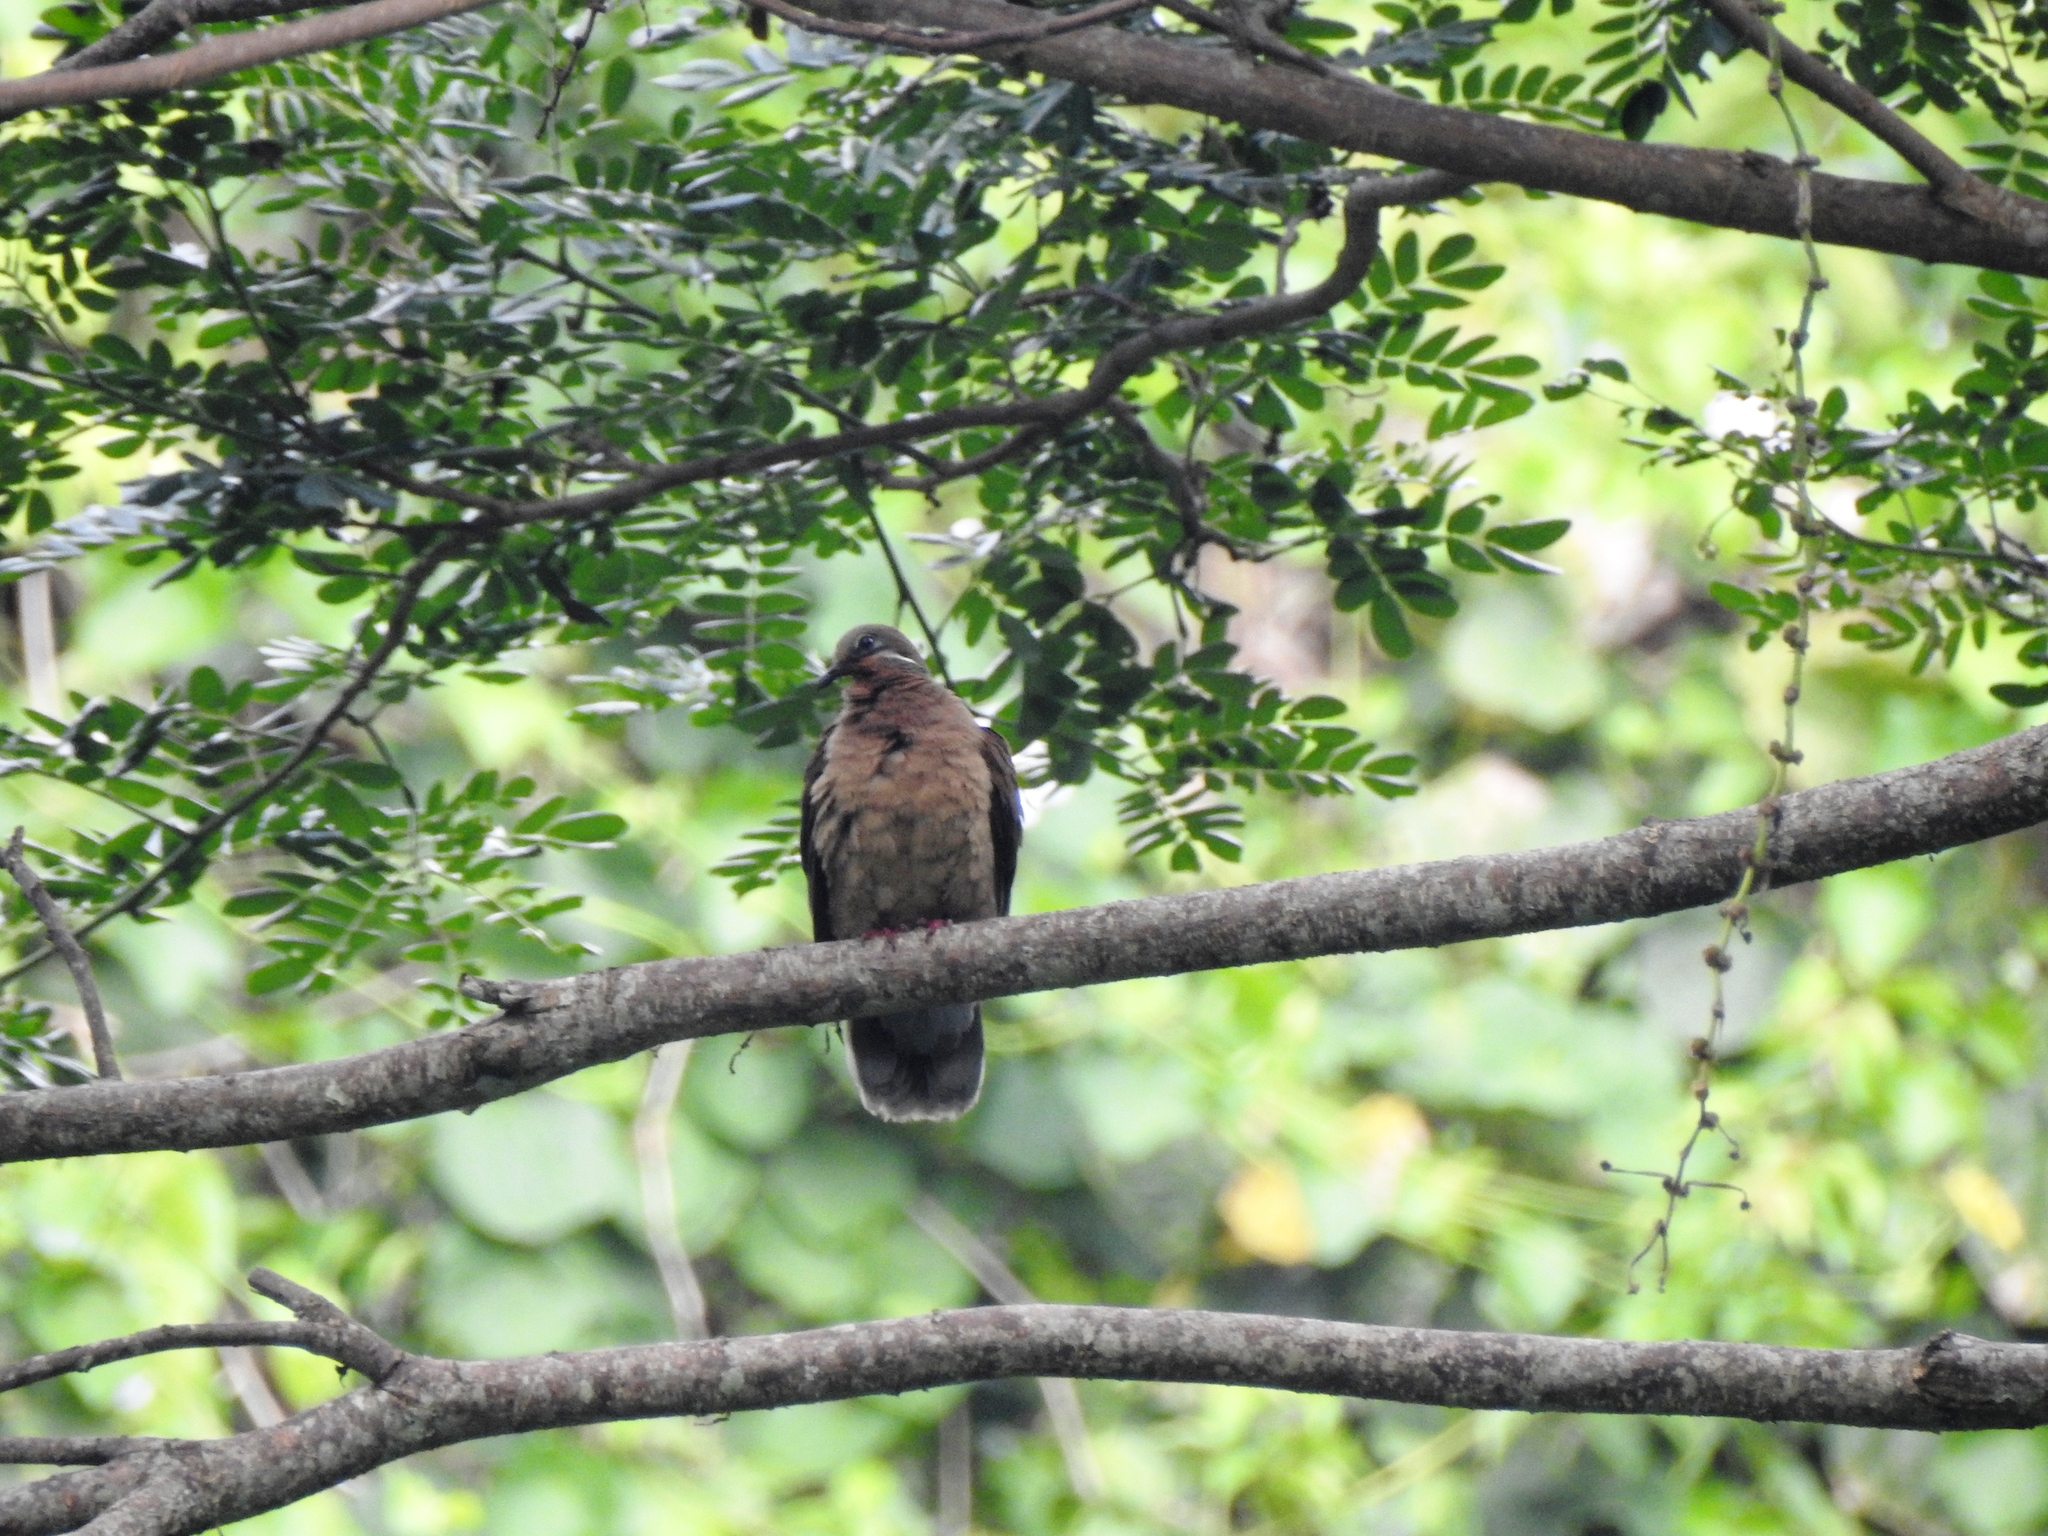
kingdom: Animalia
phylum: Chordata
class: Aves
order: Columbiformes
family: Columbidae
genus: Phapitreron
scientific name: Phapitreron leucotis
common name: White-eared brown dove
